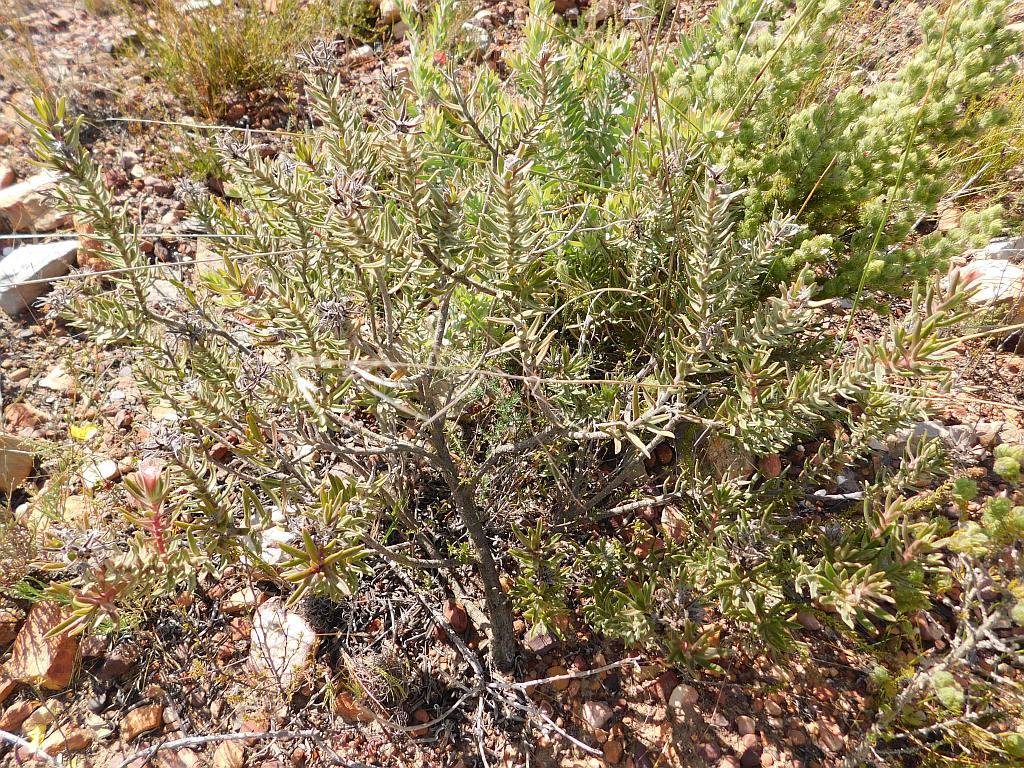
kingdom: Plantae
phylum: Tracheophyta
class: Magnoliopsida
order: Boraginales
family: Boraginaceae
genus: Lobostemon
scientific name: Lobostemon fruticosus
